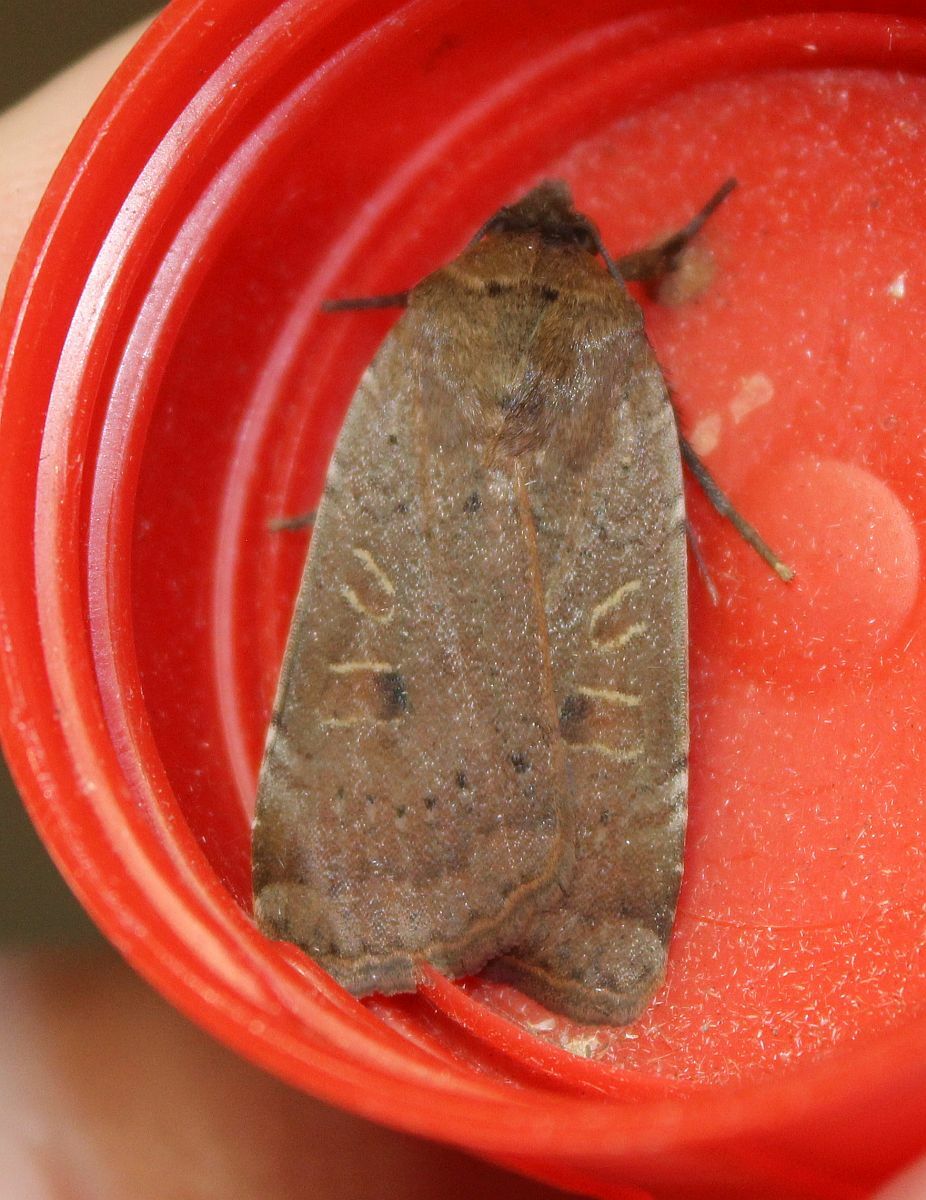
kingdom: Animalia
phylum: Arthropoda
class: Insecta
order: Lepidoptera
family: Noctuidae
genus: Noctua
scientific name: Noctua comes
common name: Lesser yellow underwing
